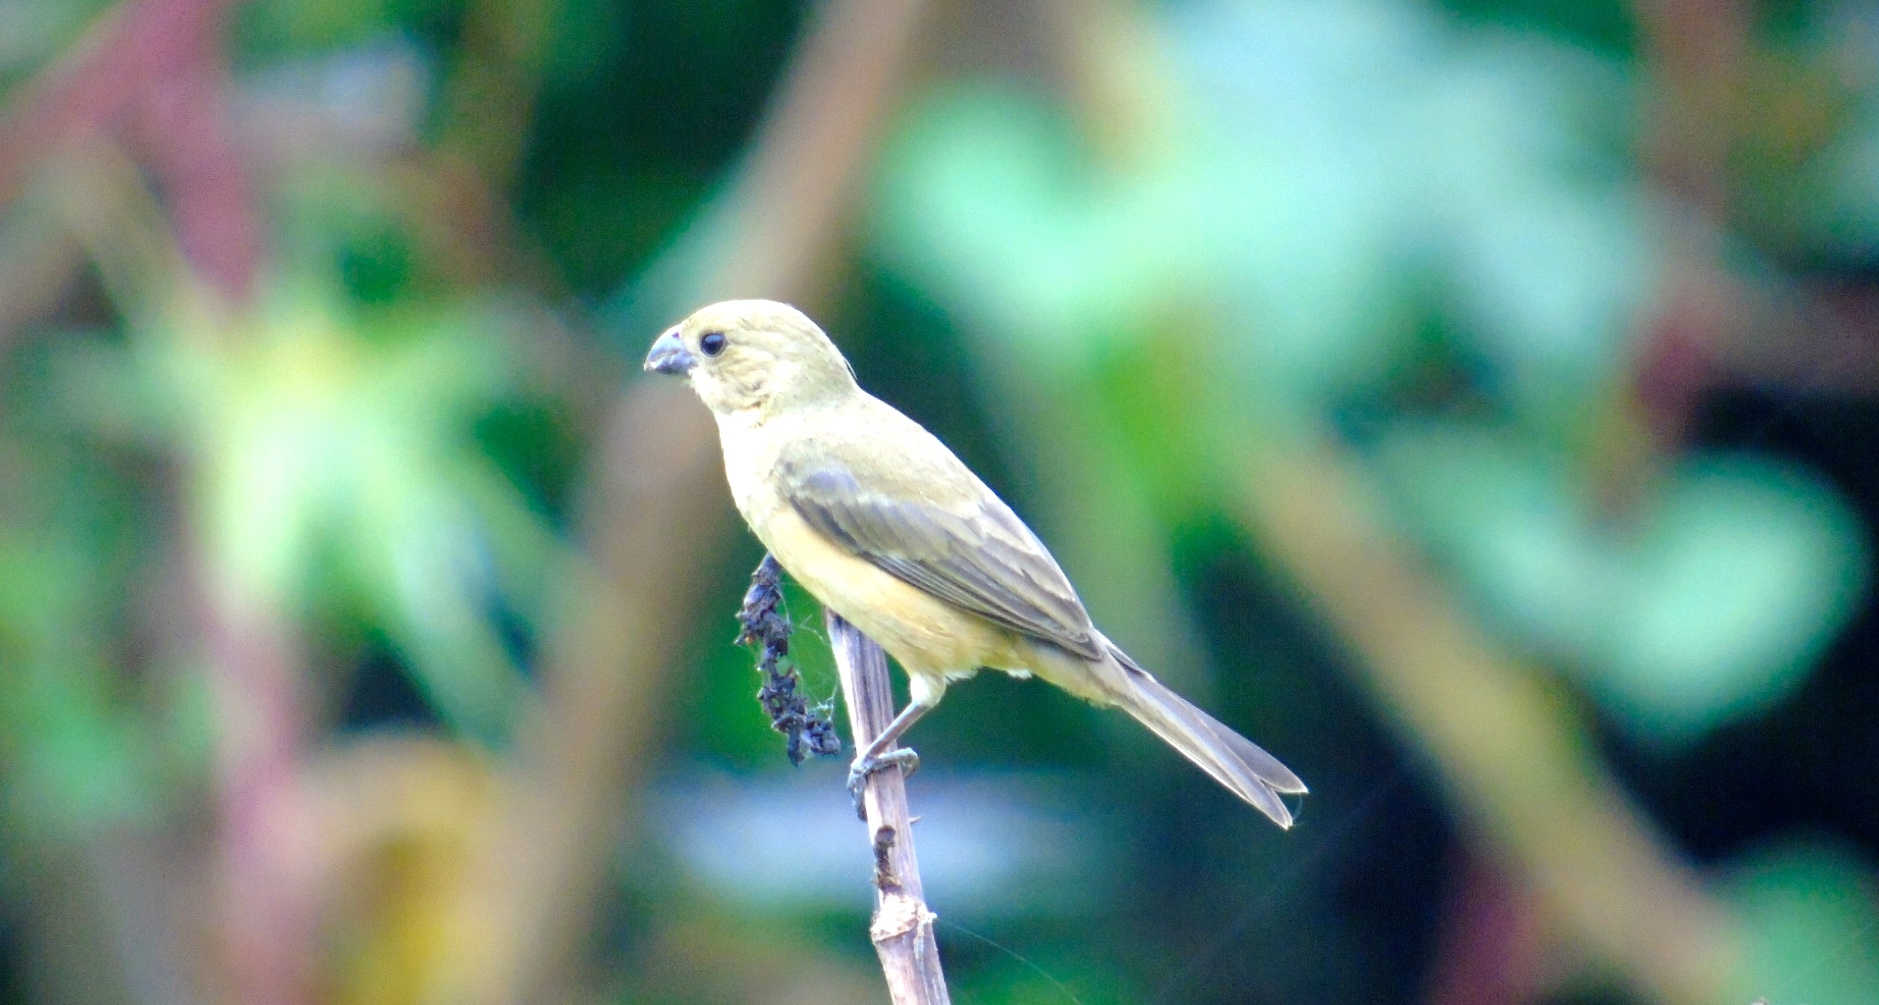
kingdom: Animalia
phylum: Chordata
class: Aves
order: Passeriformes
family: Thraupidae
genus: Sporophila
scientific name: Sporophila torqueola
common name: White-collared seedeater
